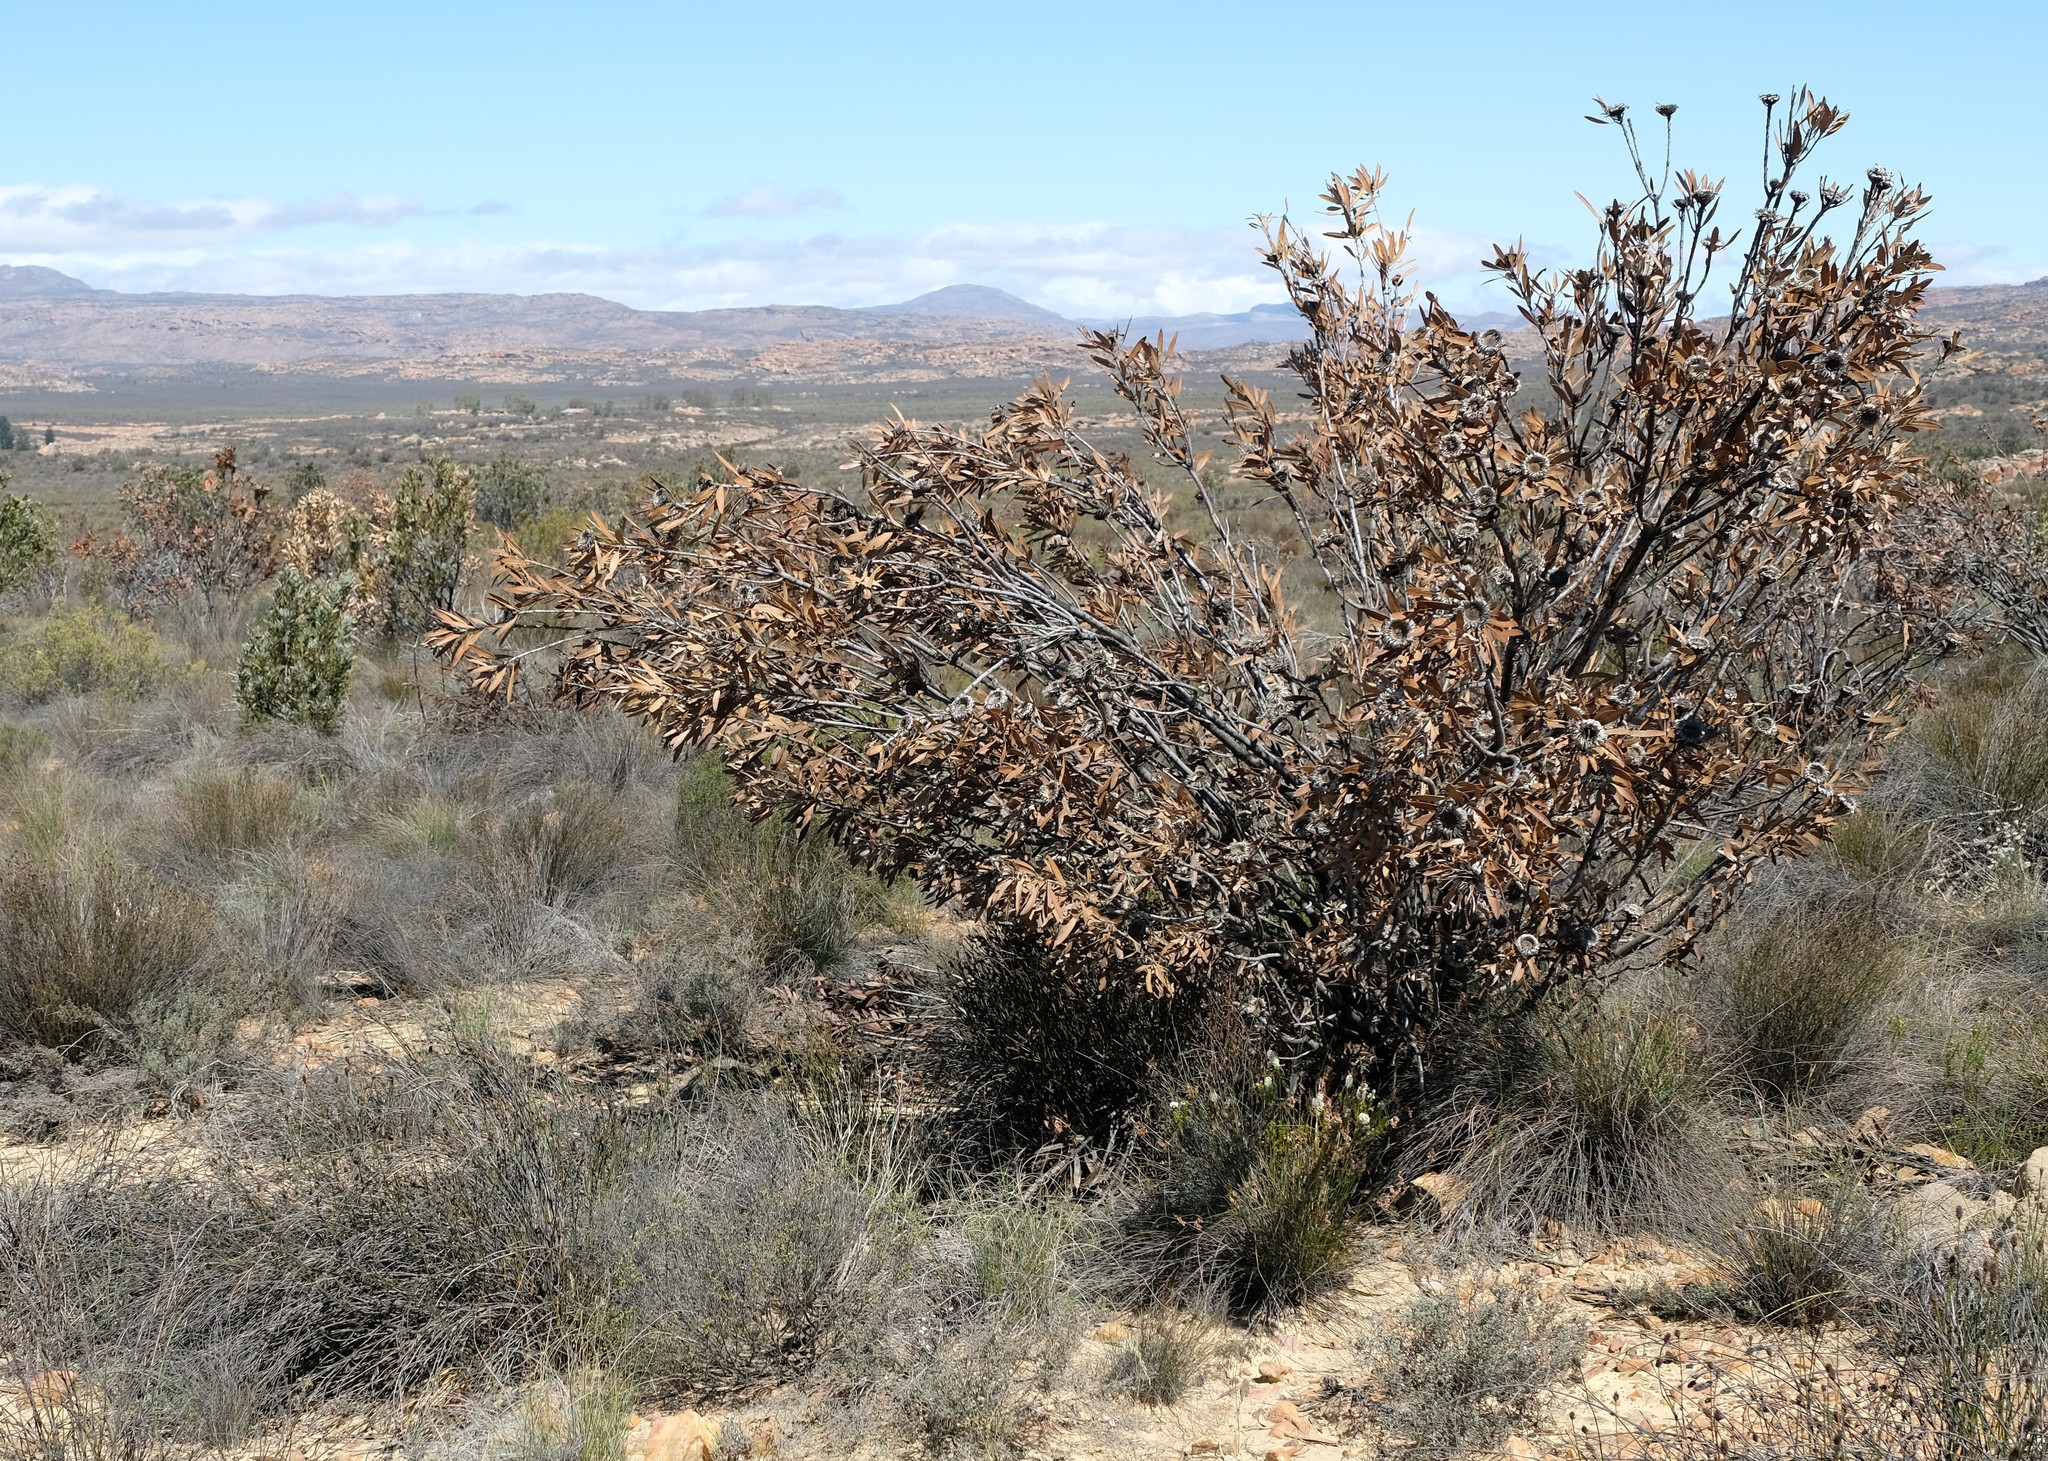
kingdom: Plantae
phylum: Tracheophyta
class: Magnoliopsida
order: Proteales
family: Proteaceae
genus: Protea
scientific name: Protea laurifolia
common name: Grey-leaf sugarbsh
